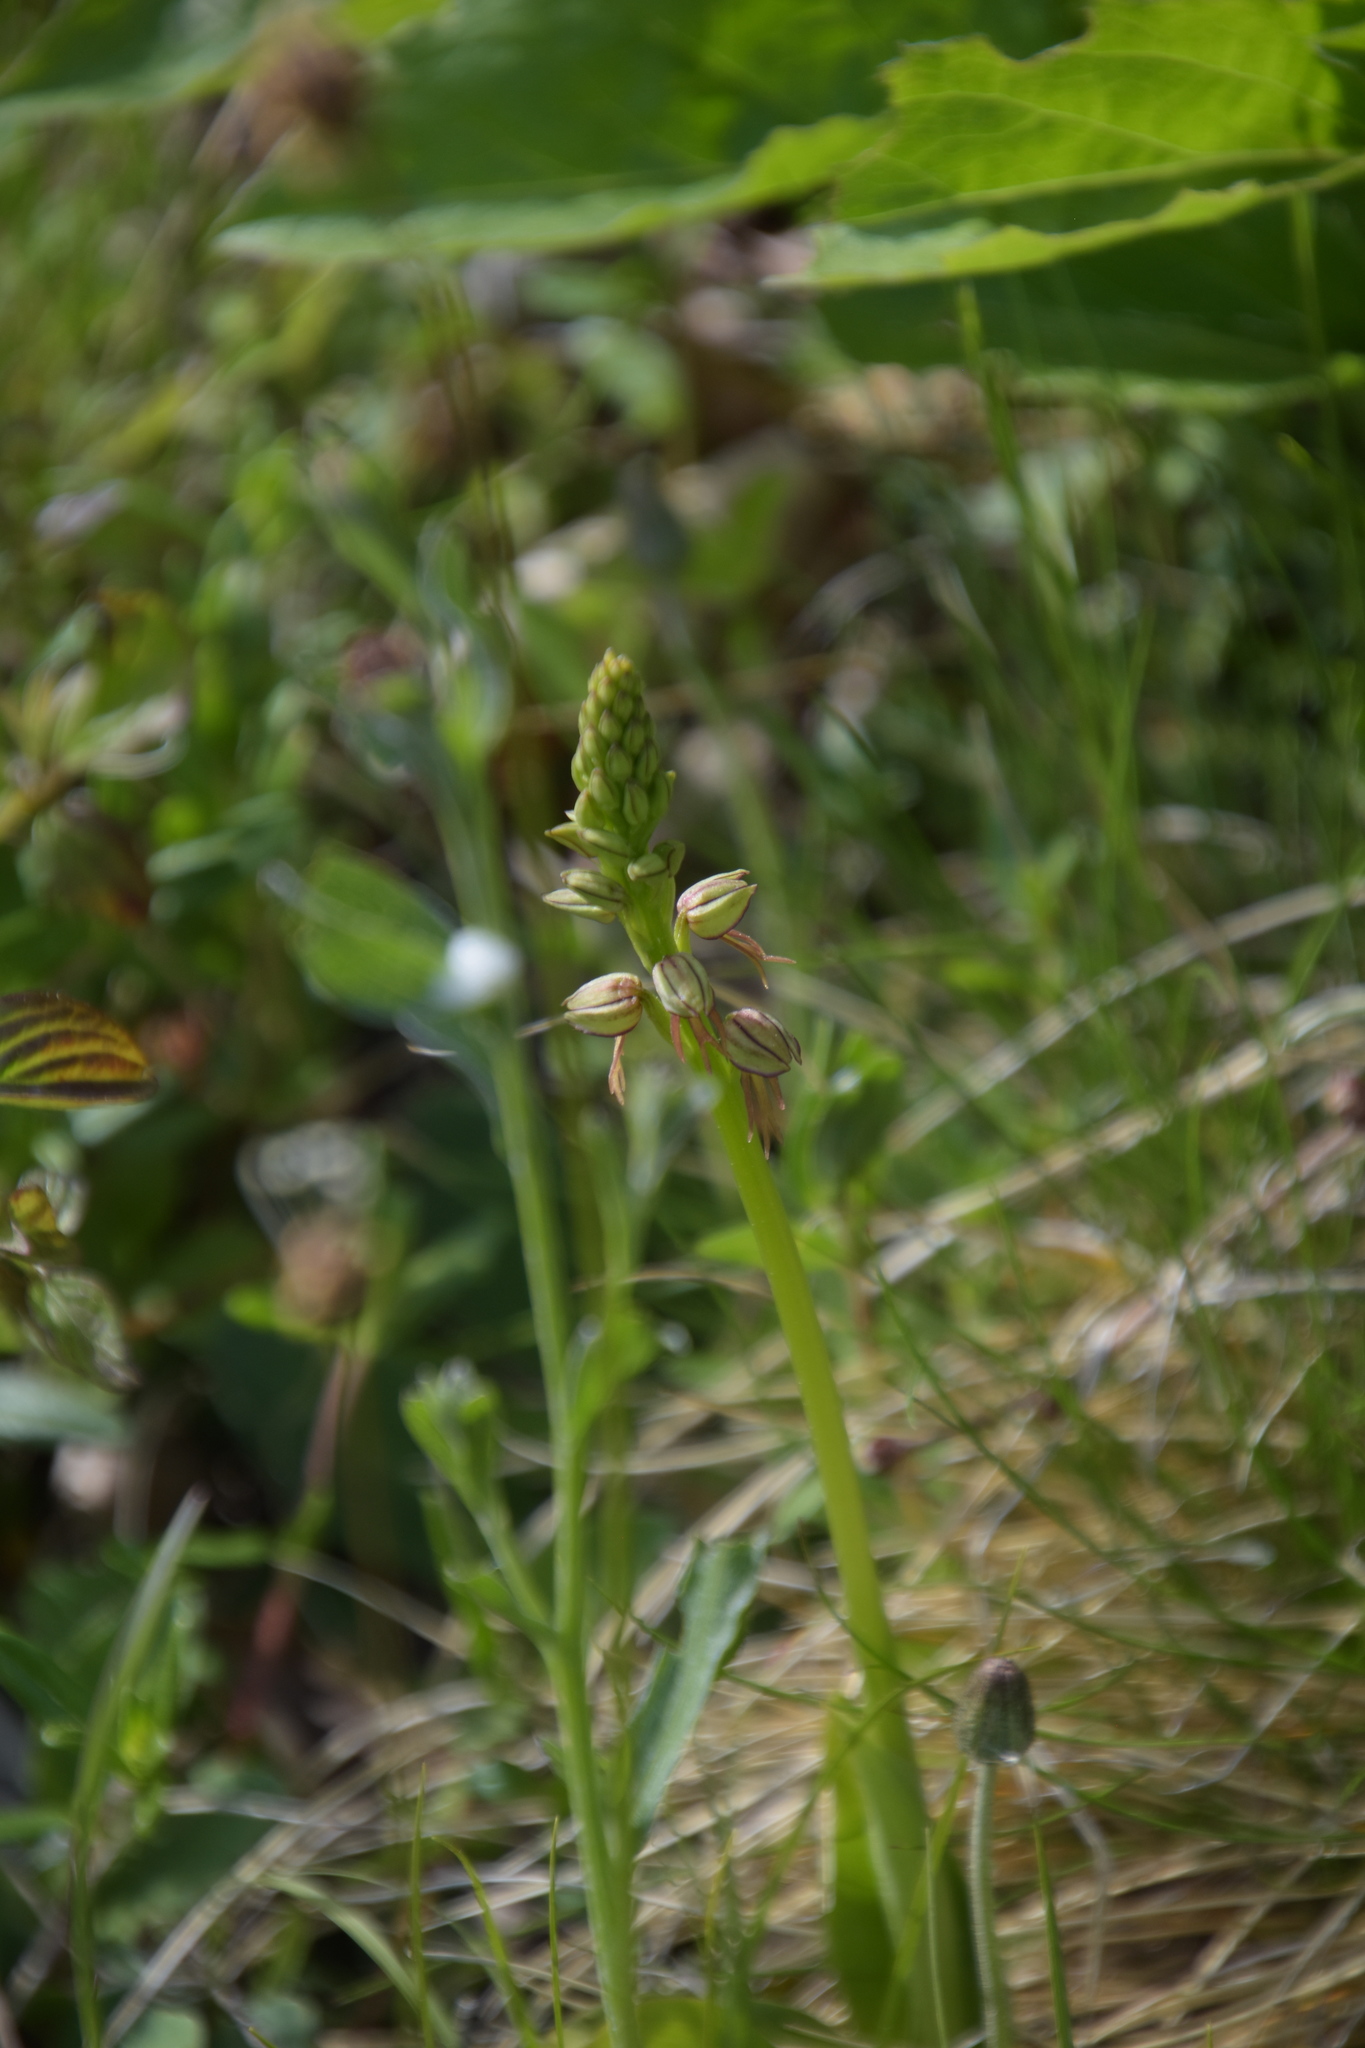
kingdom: Plantae
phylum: Tracheophyta
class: Liliopsida
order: Asparagales
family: Orchidaceae
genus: Orchis
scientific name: Orchis anthropophora
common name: Man orchid
